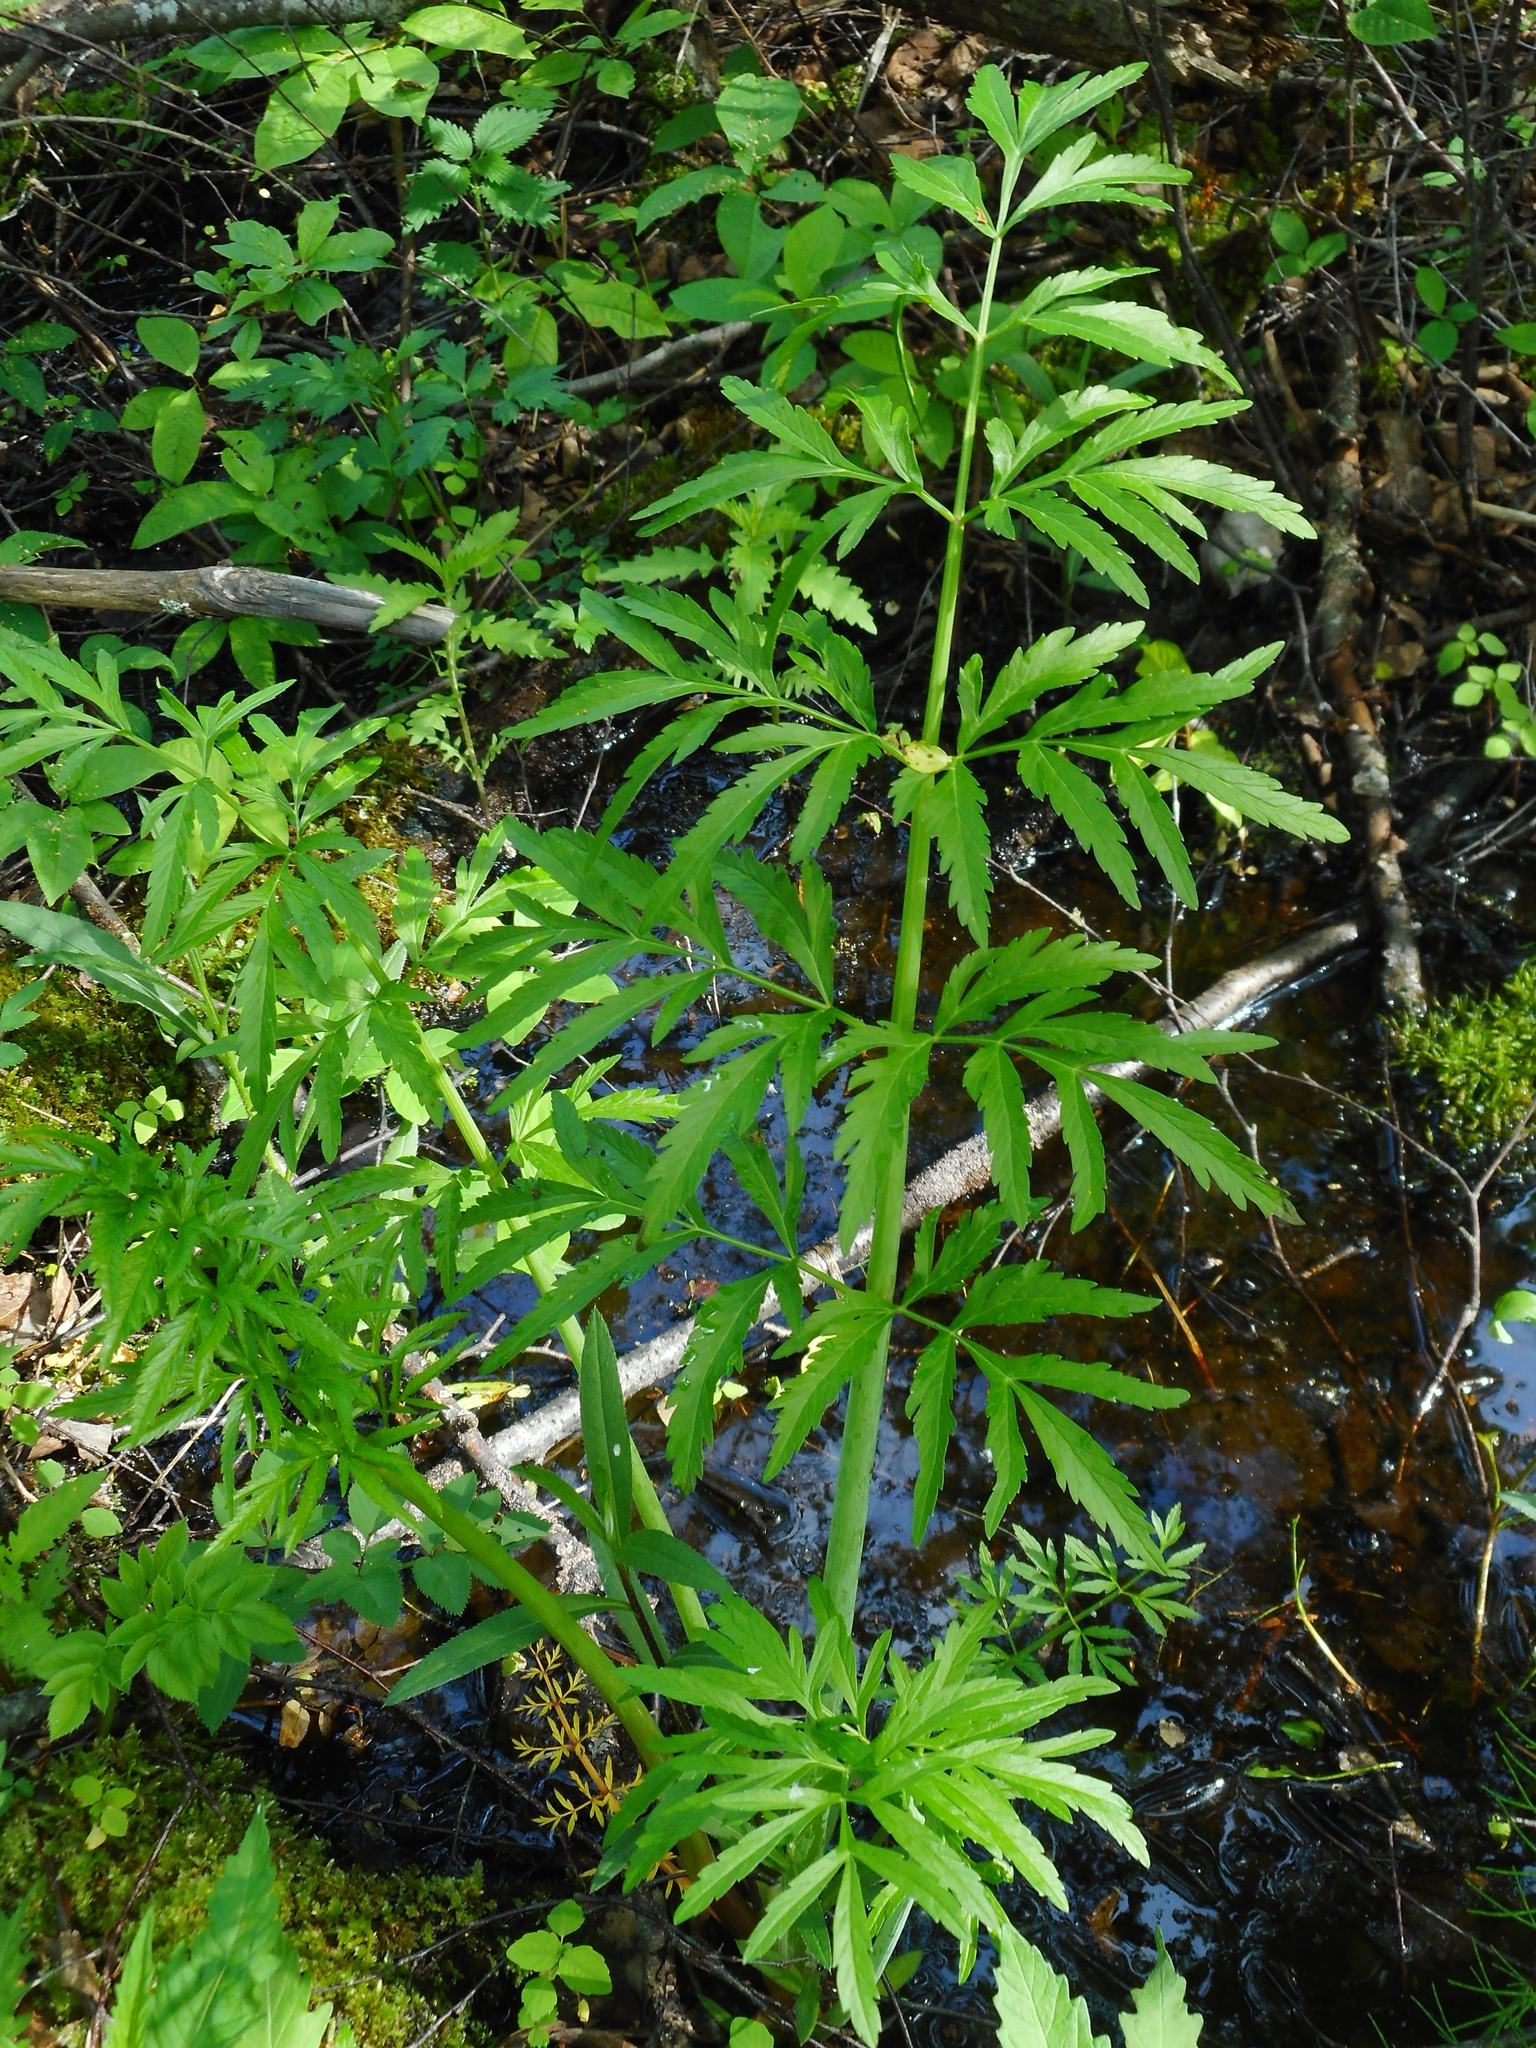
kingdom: Plantae
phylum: Tracheophyta
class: Magnoliopsida
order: Apiales
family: Apiaceae
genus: Cicuta
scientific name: Cicuta virosa
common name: Cowbane
